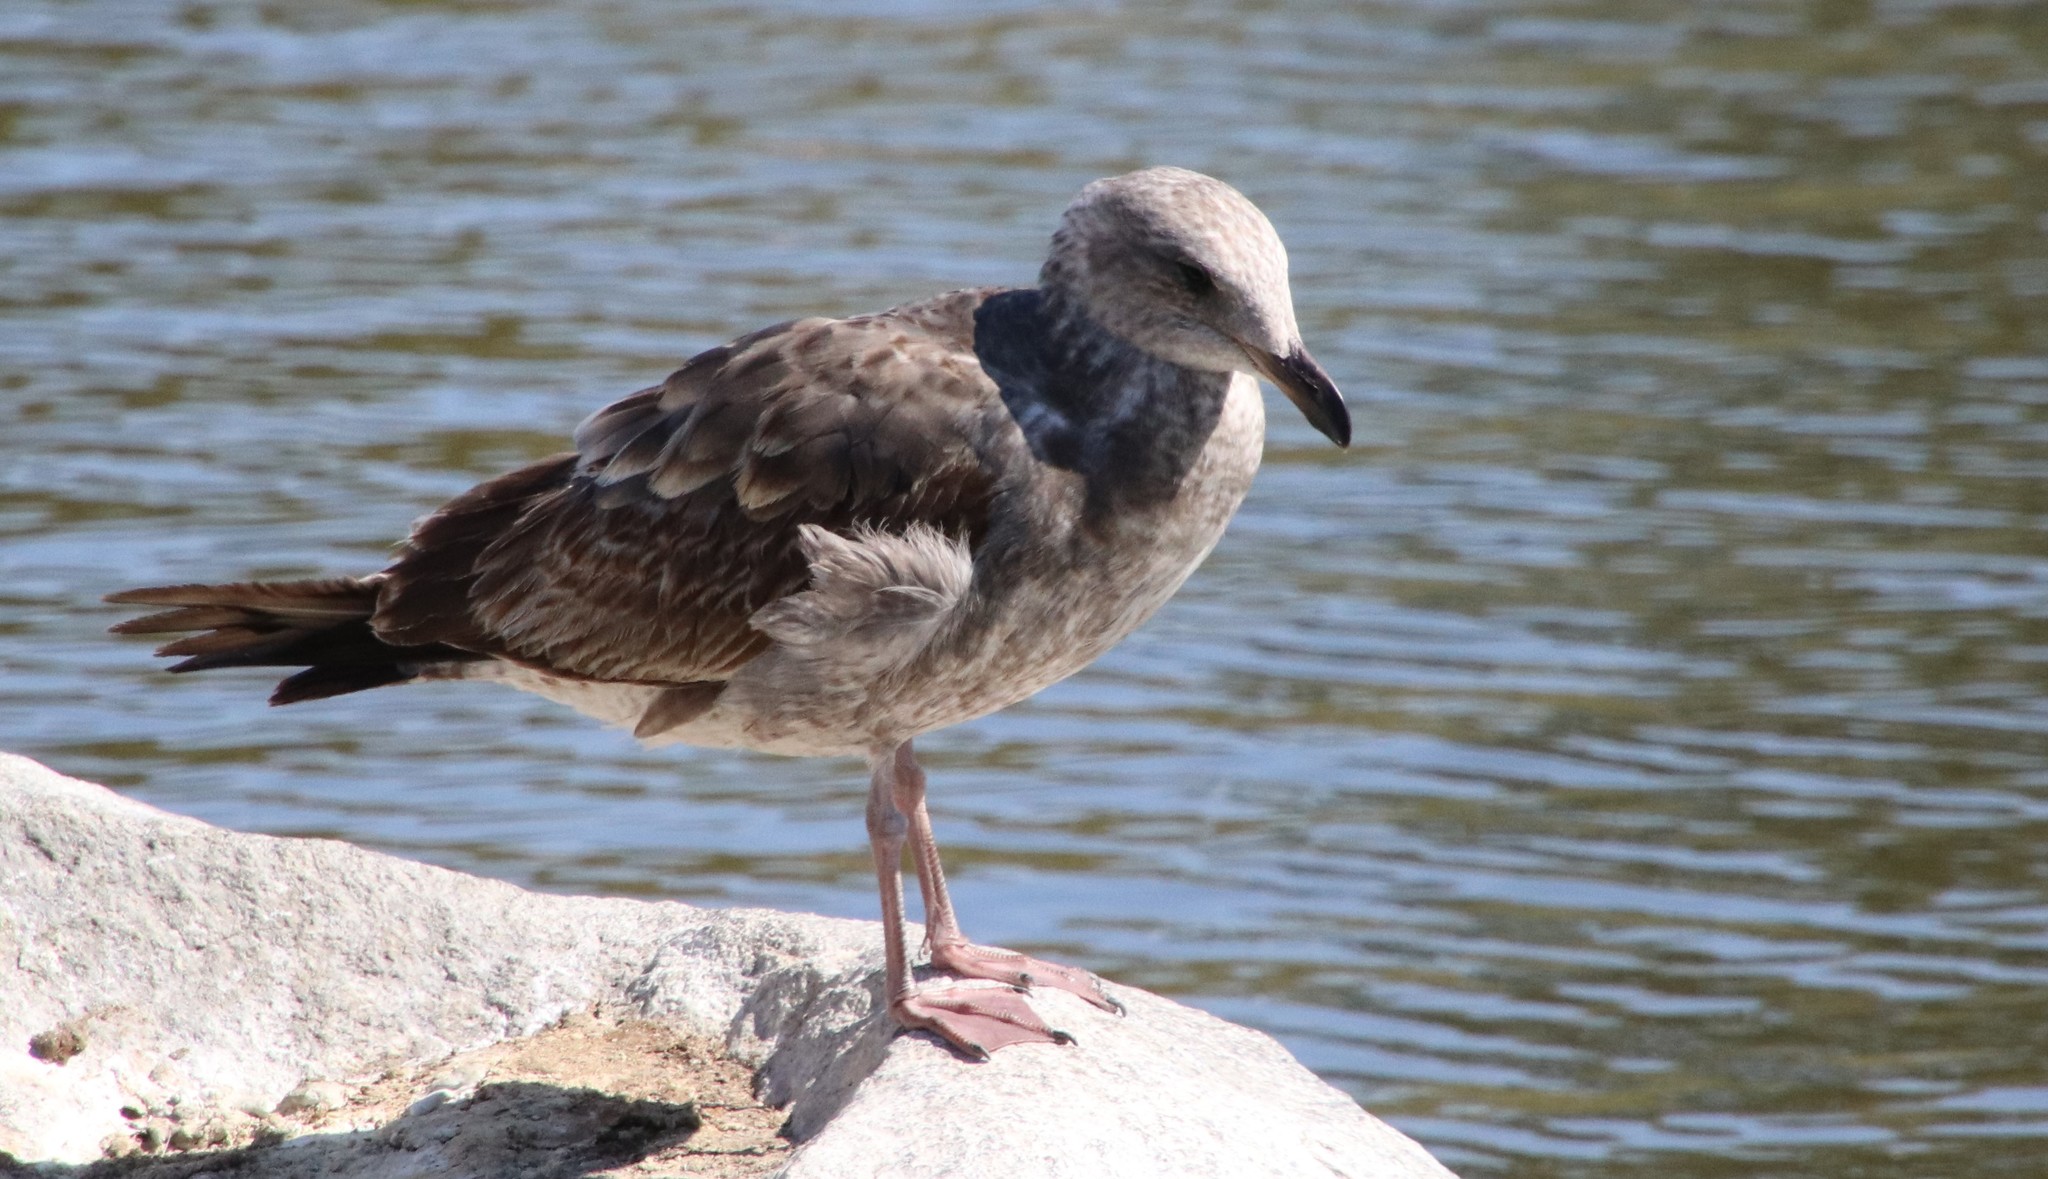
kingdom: Animalia
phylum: Chordata
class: Aves
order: Charadriiformes
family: Laridae
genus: Larus
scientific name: Larus occidentalis
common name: Western gull
